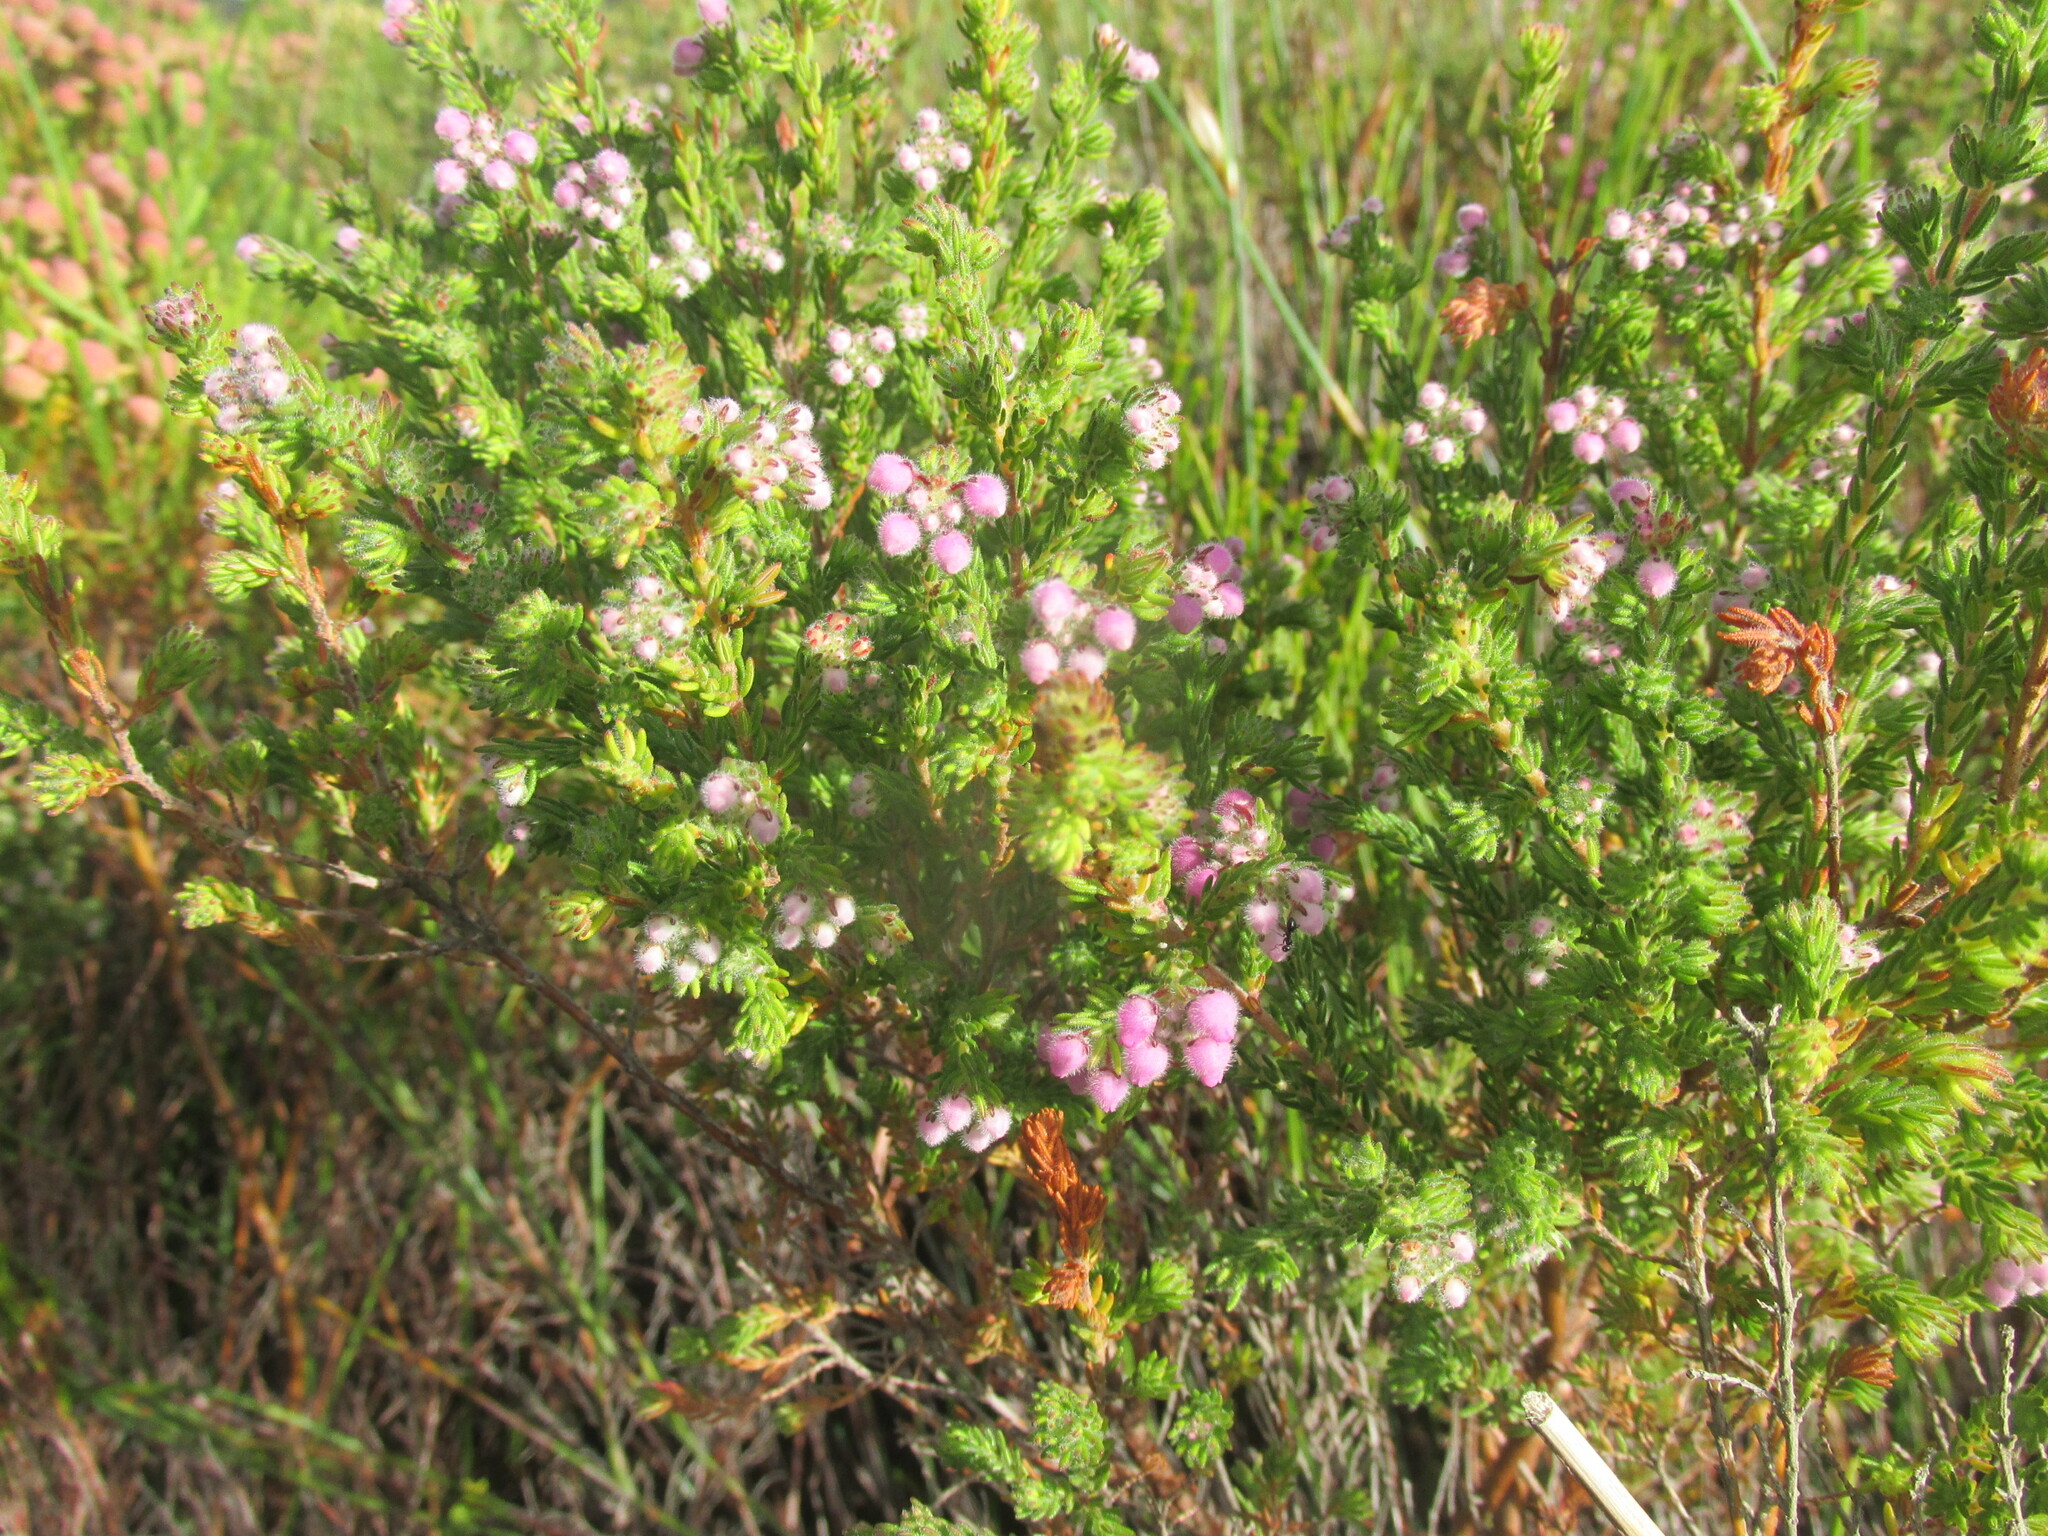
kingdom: Plantae
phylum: Tracheophyta
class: Magnoliopsida
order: Ericales
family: Ericaceae
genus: Erica
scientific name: Erica hirtiflora
